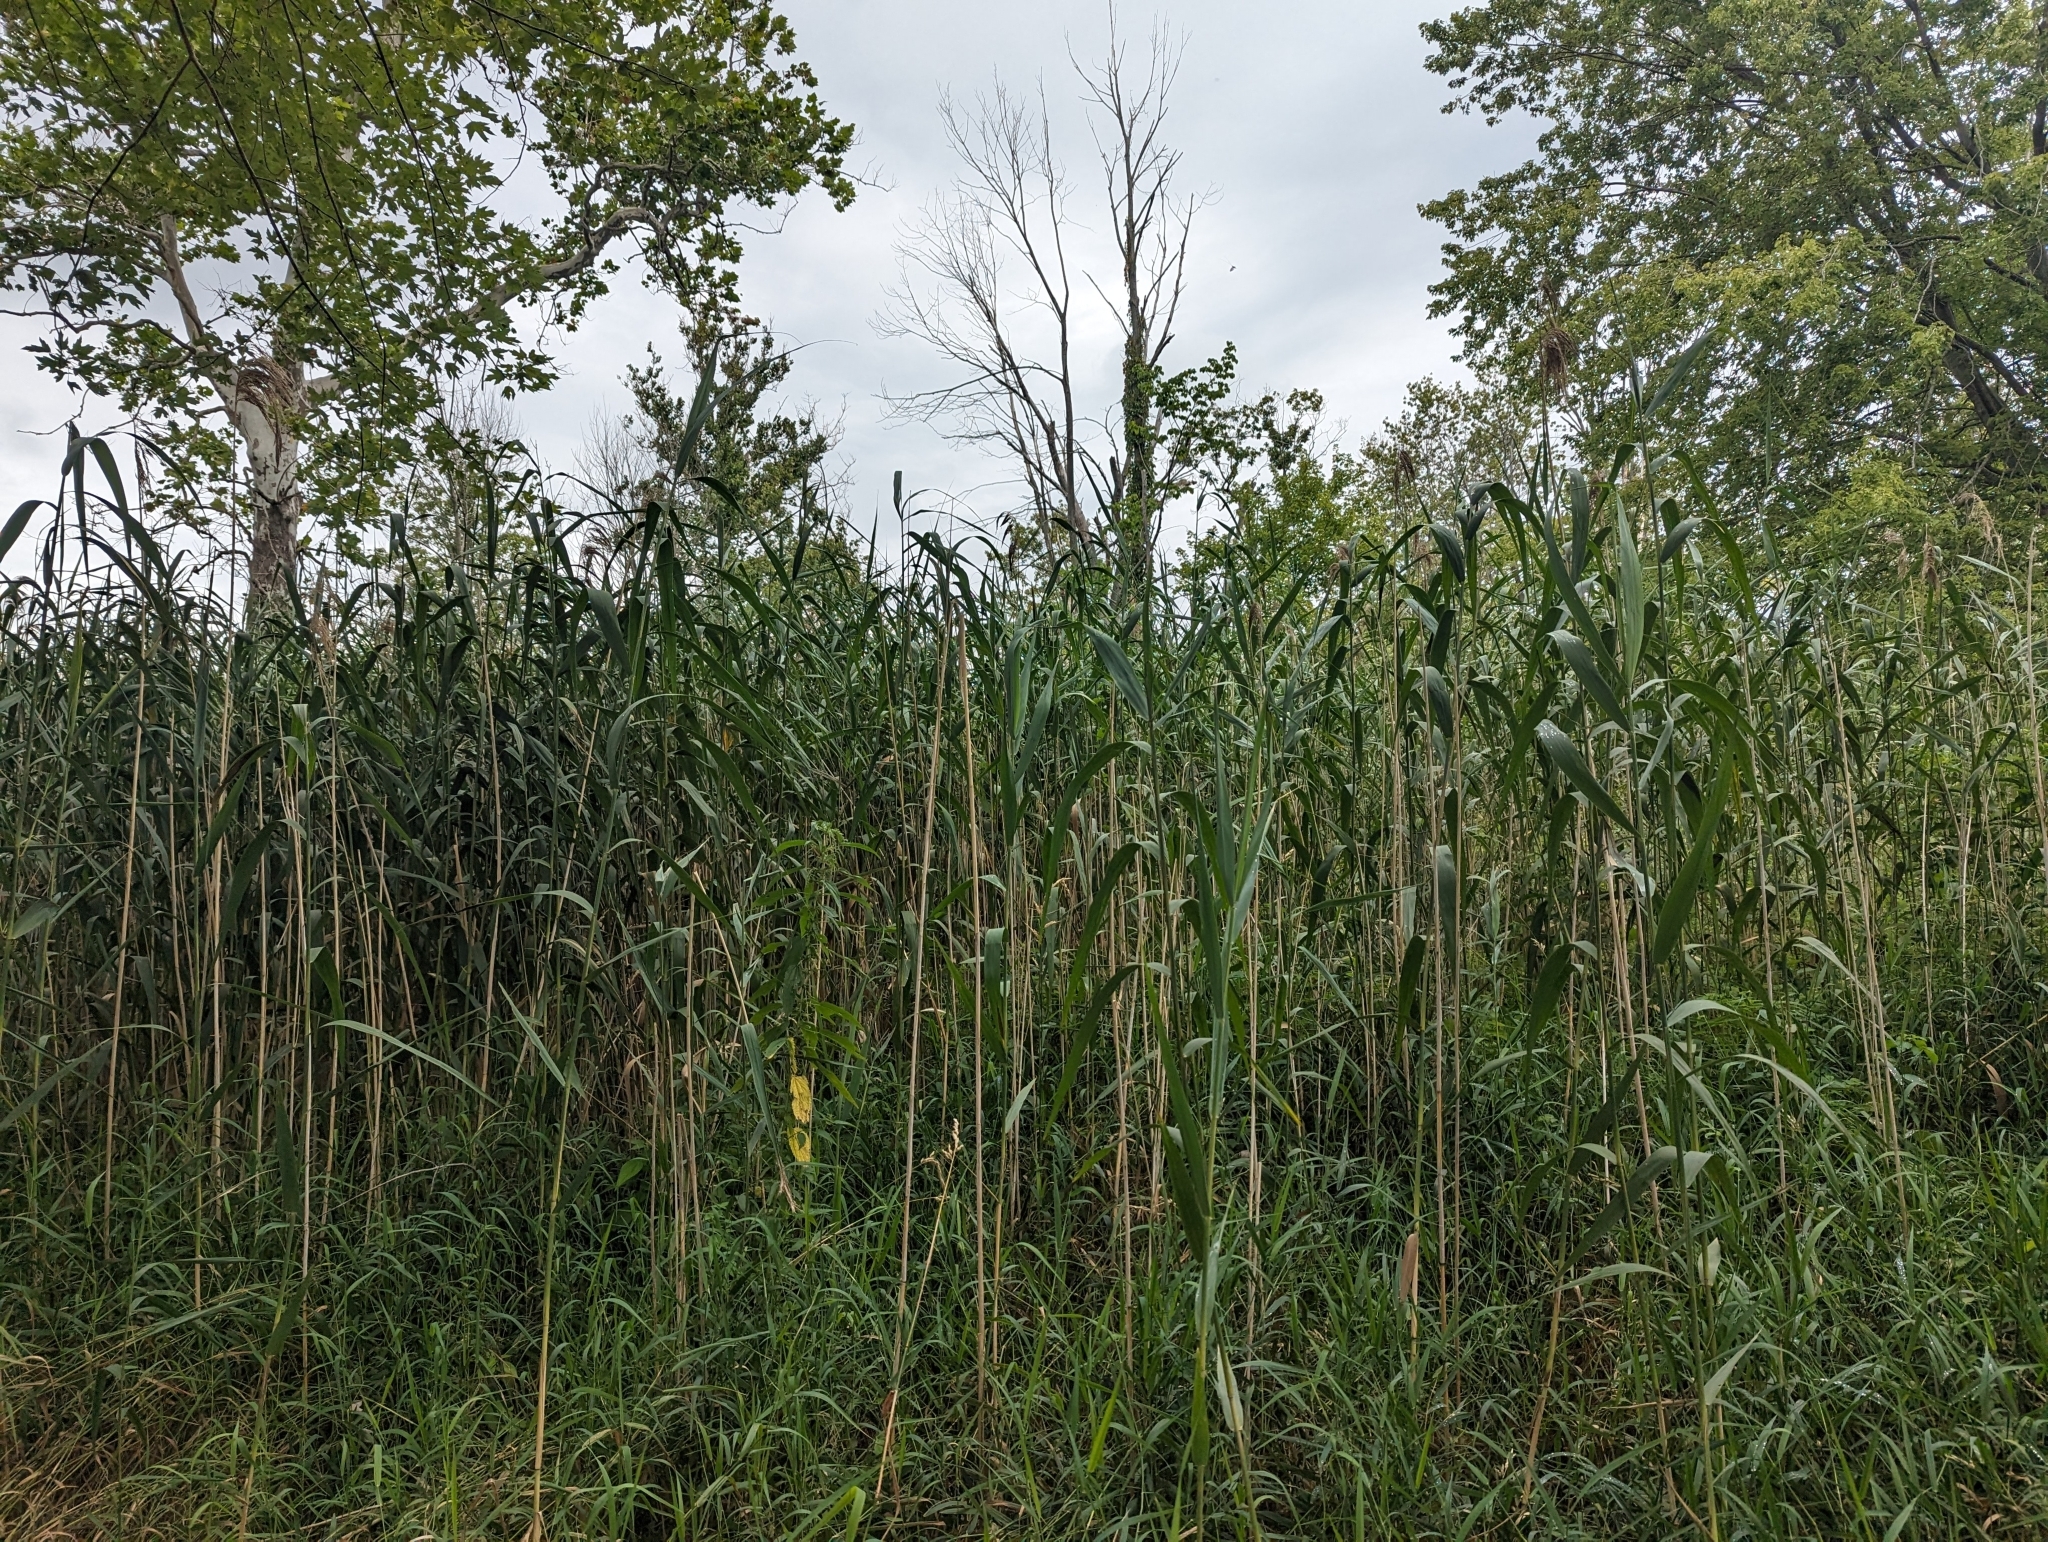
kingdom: Plantae
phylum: Tracheophyta
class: Liliopsida
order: Poales
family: Poaceae
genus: Phragmites
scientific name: Phragmites australis
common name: Common reed
